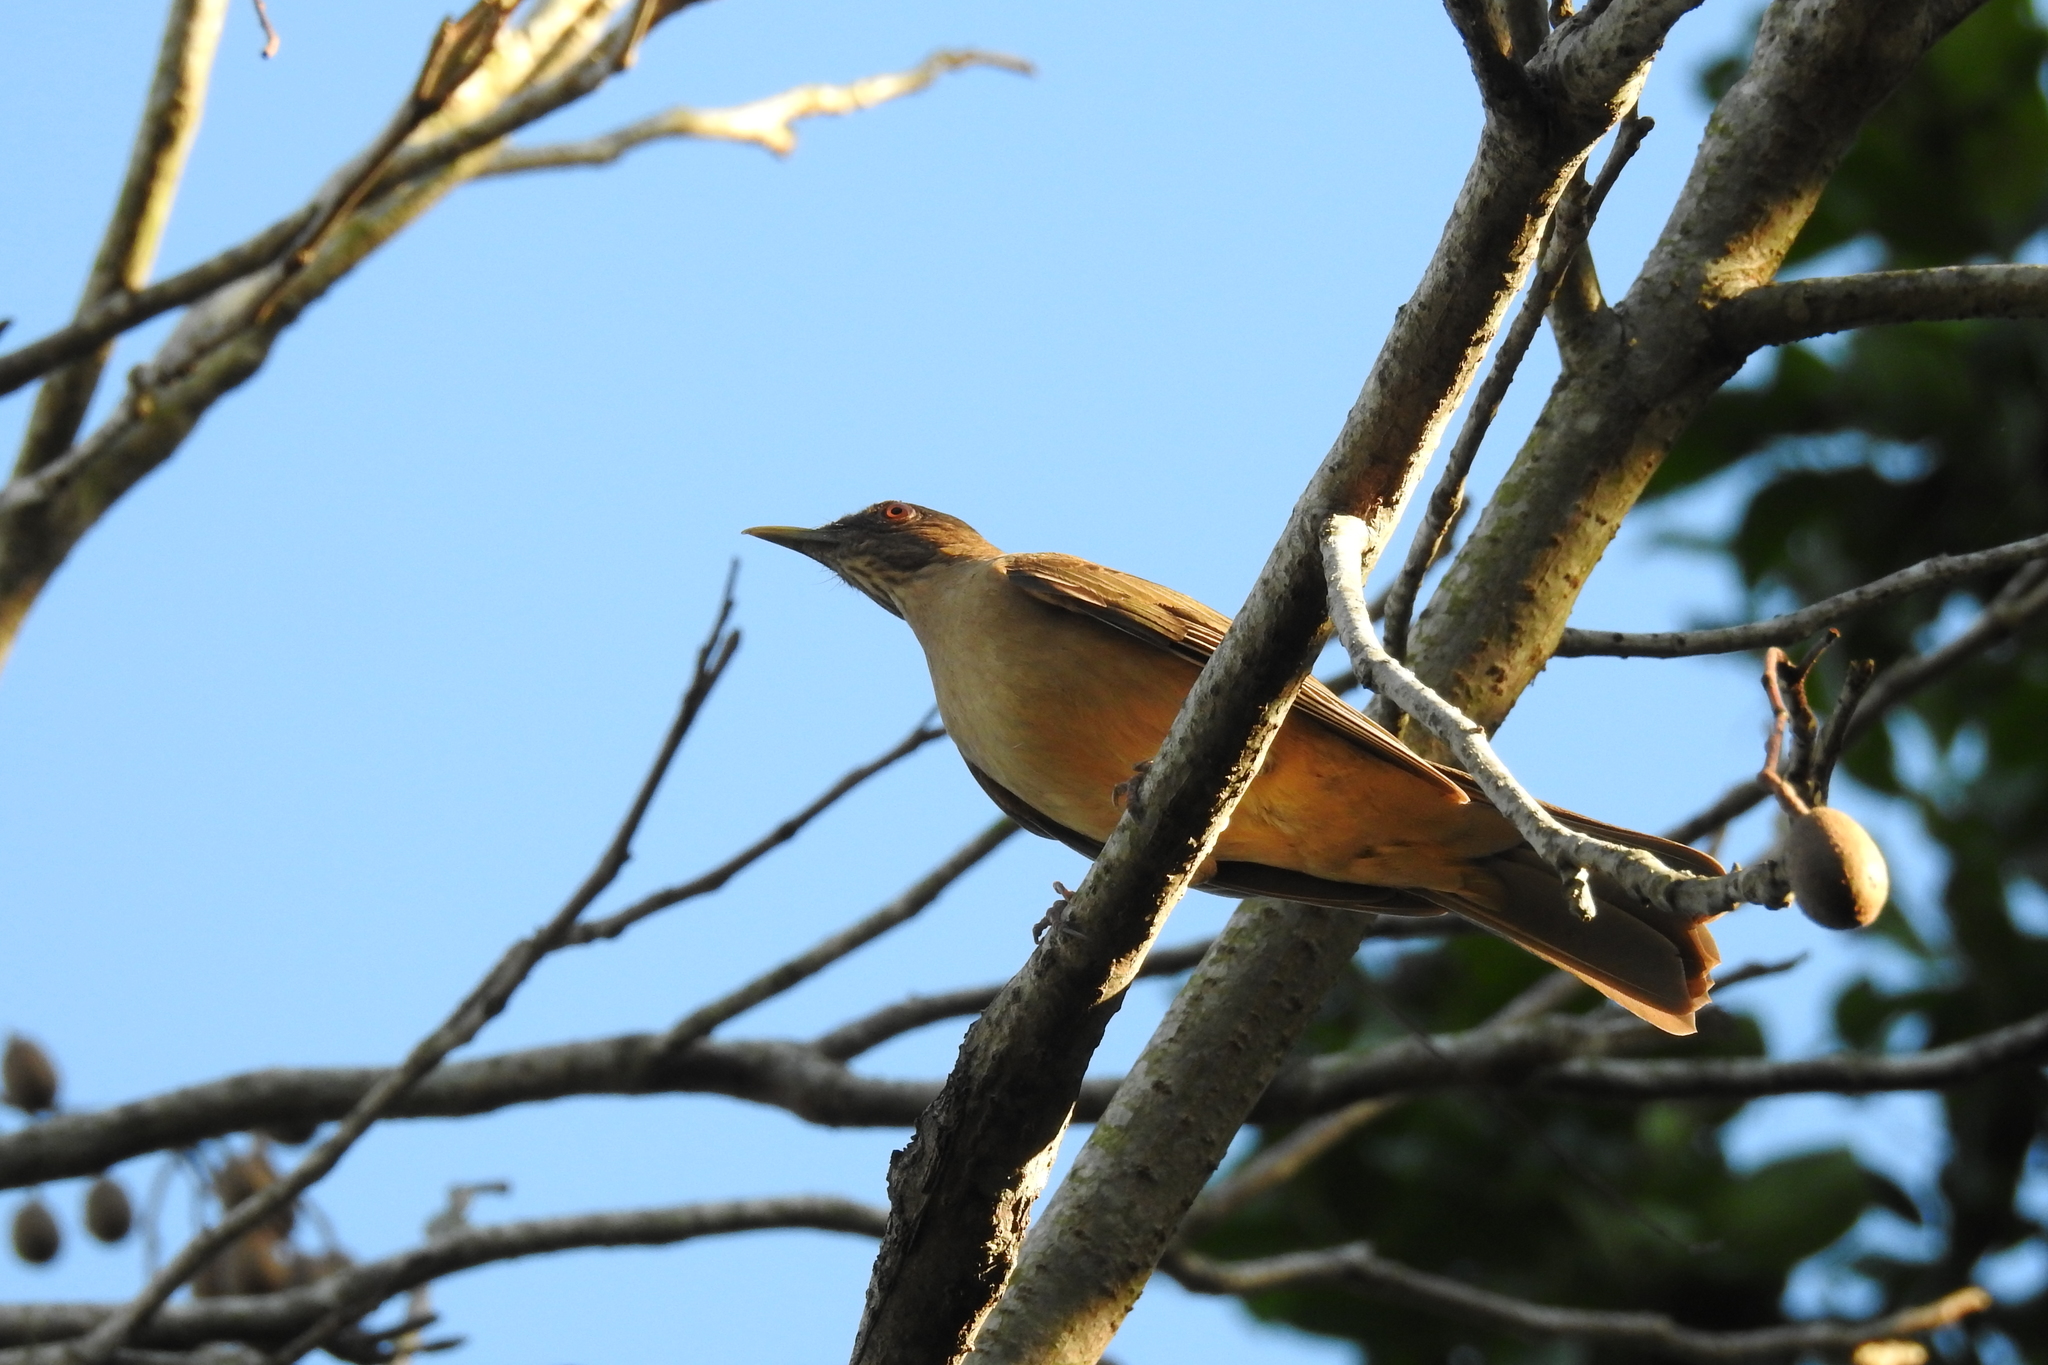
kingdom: Animalia
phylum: Chordata
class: Aves
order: Passeriformes
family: Turdidae
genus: Turdus
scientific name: Turdus grayi
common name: Clay-colored thrush
